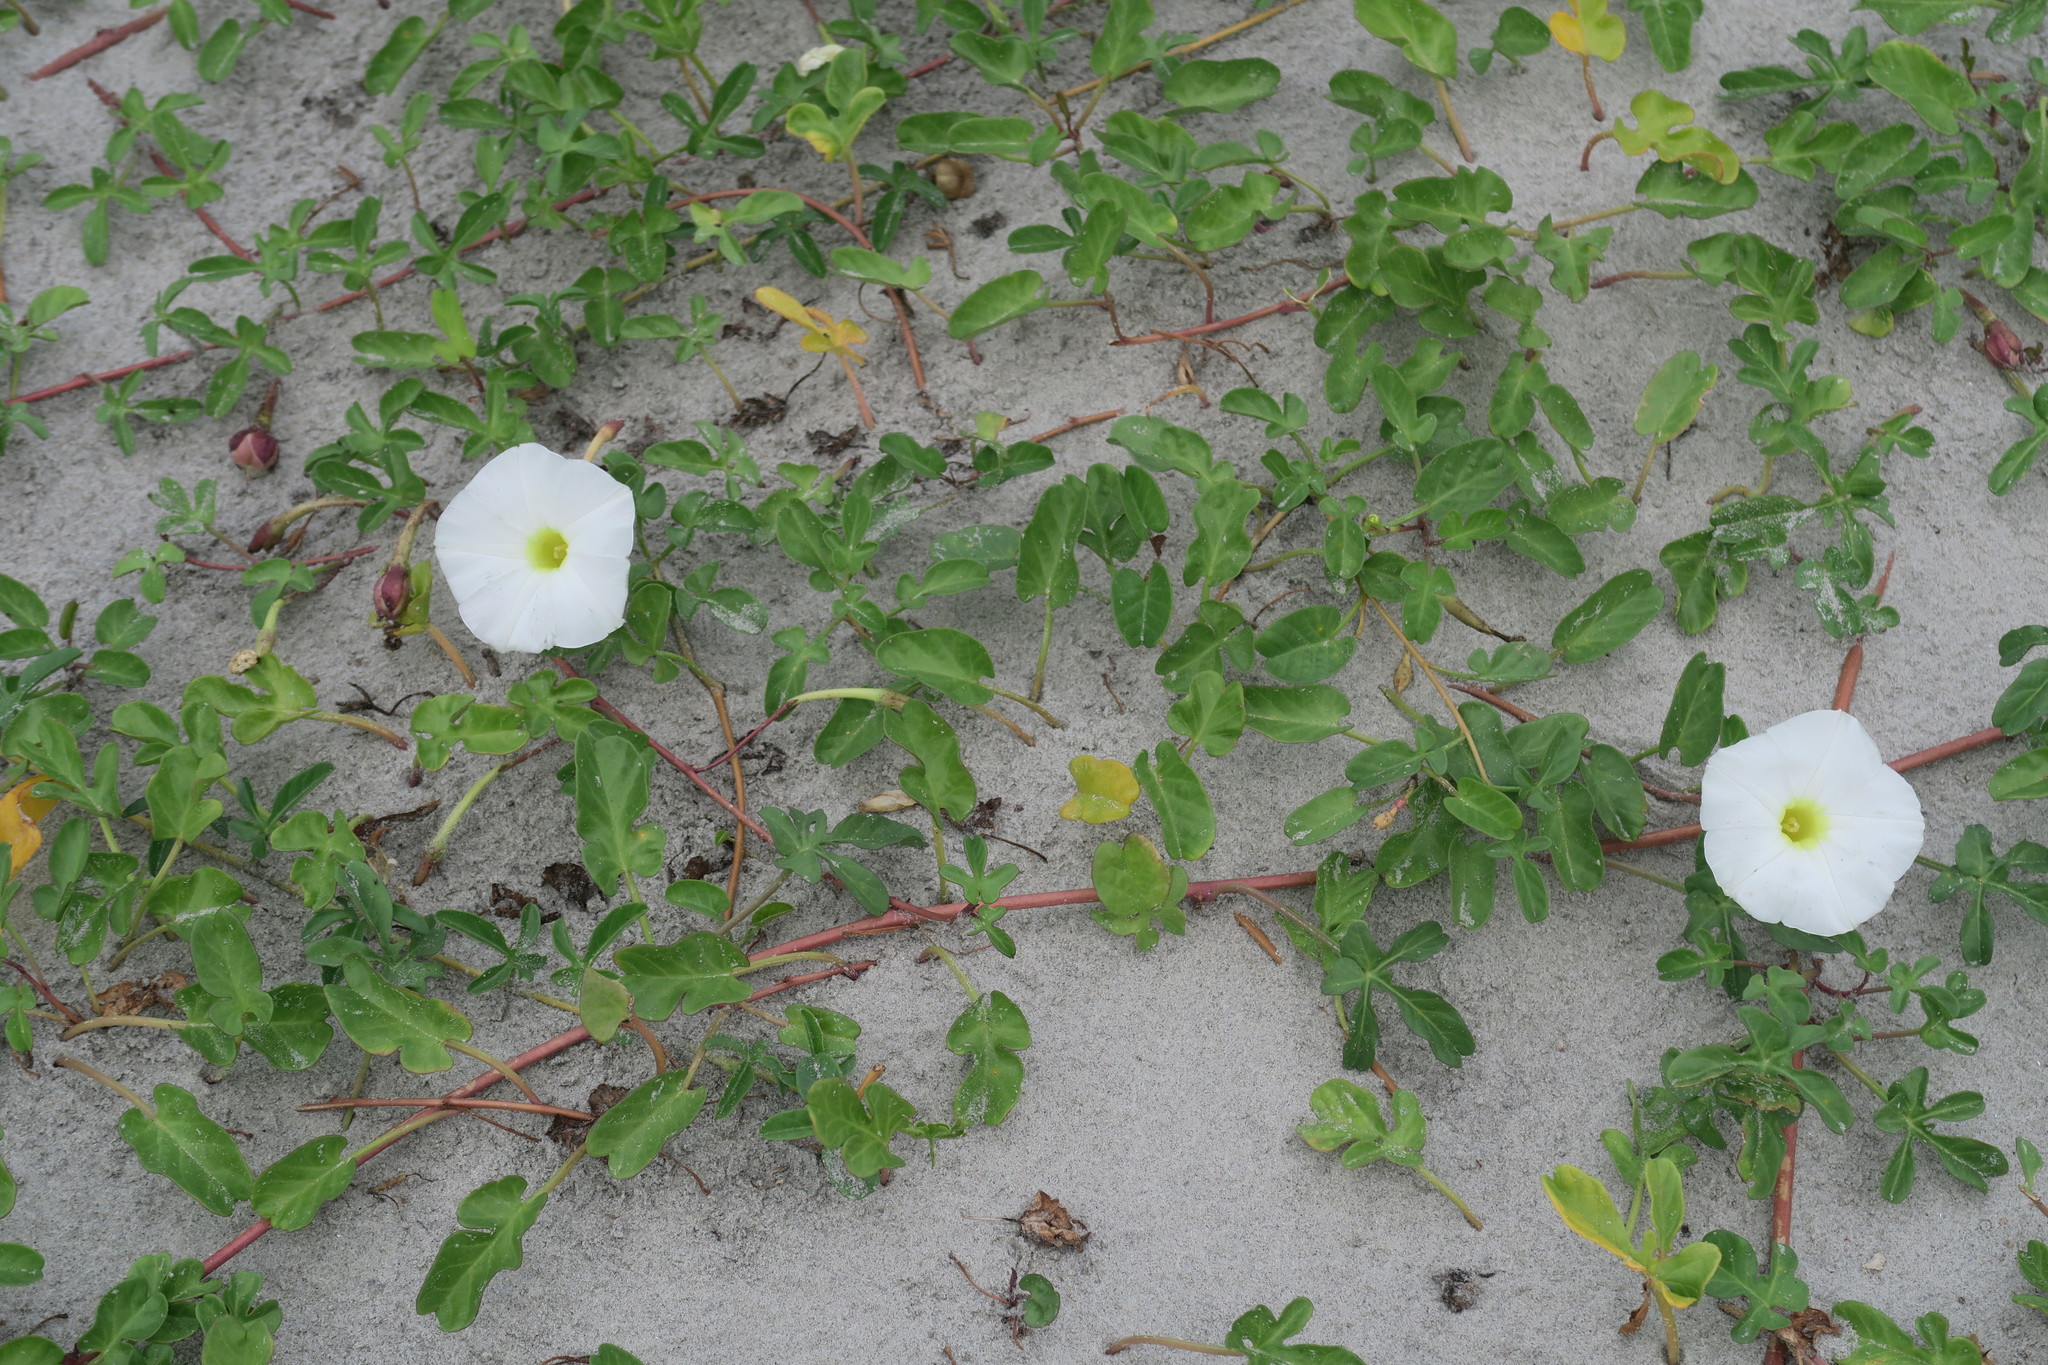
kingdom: Plantae
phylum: Tracheophyta
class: Magnoliopsida
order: Solanales
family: Convolvulaceae
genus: Ipomoea
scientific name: Ipomoea imperati
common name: Fiddle-leaf morning-glory
